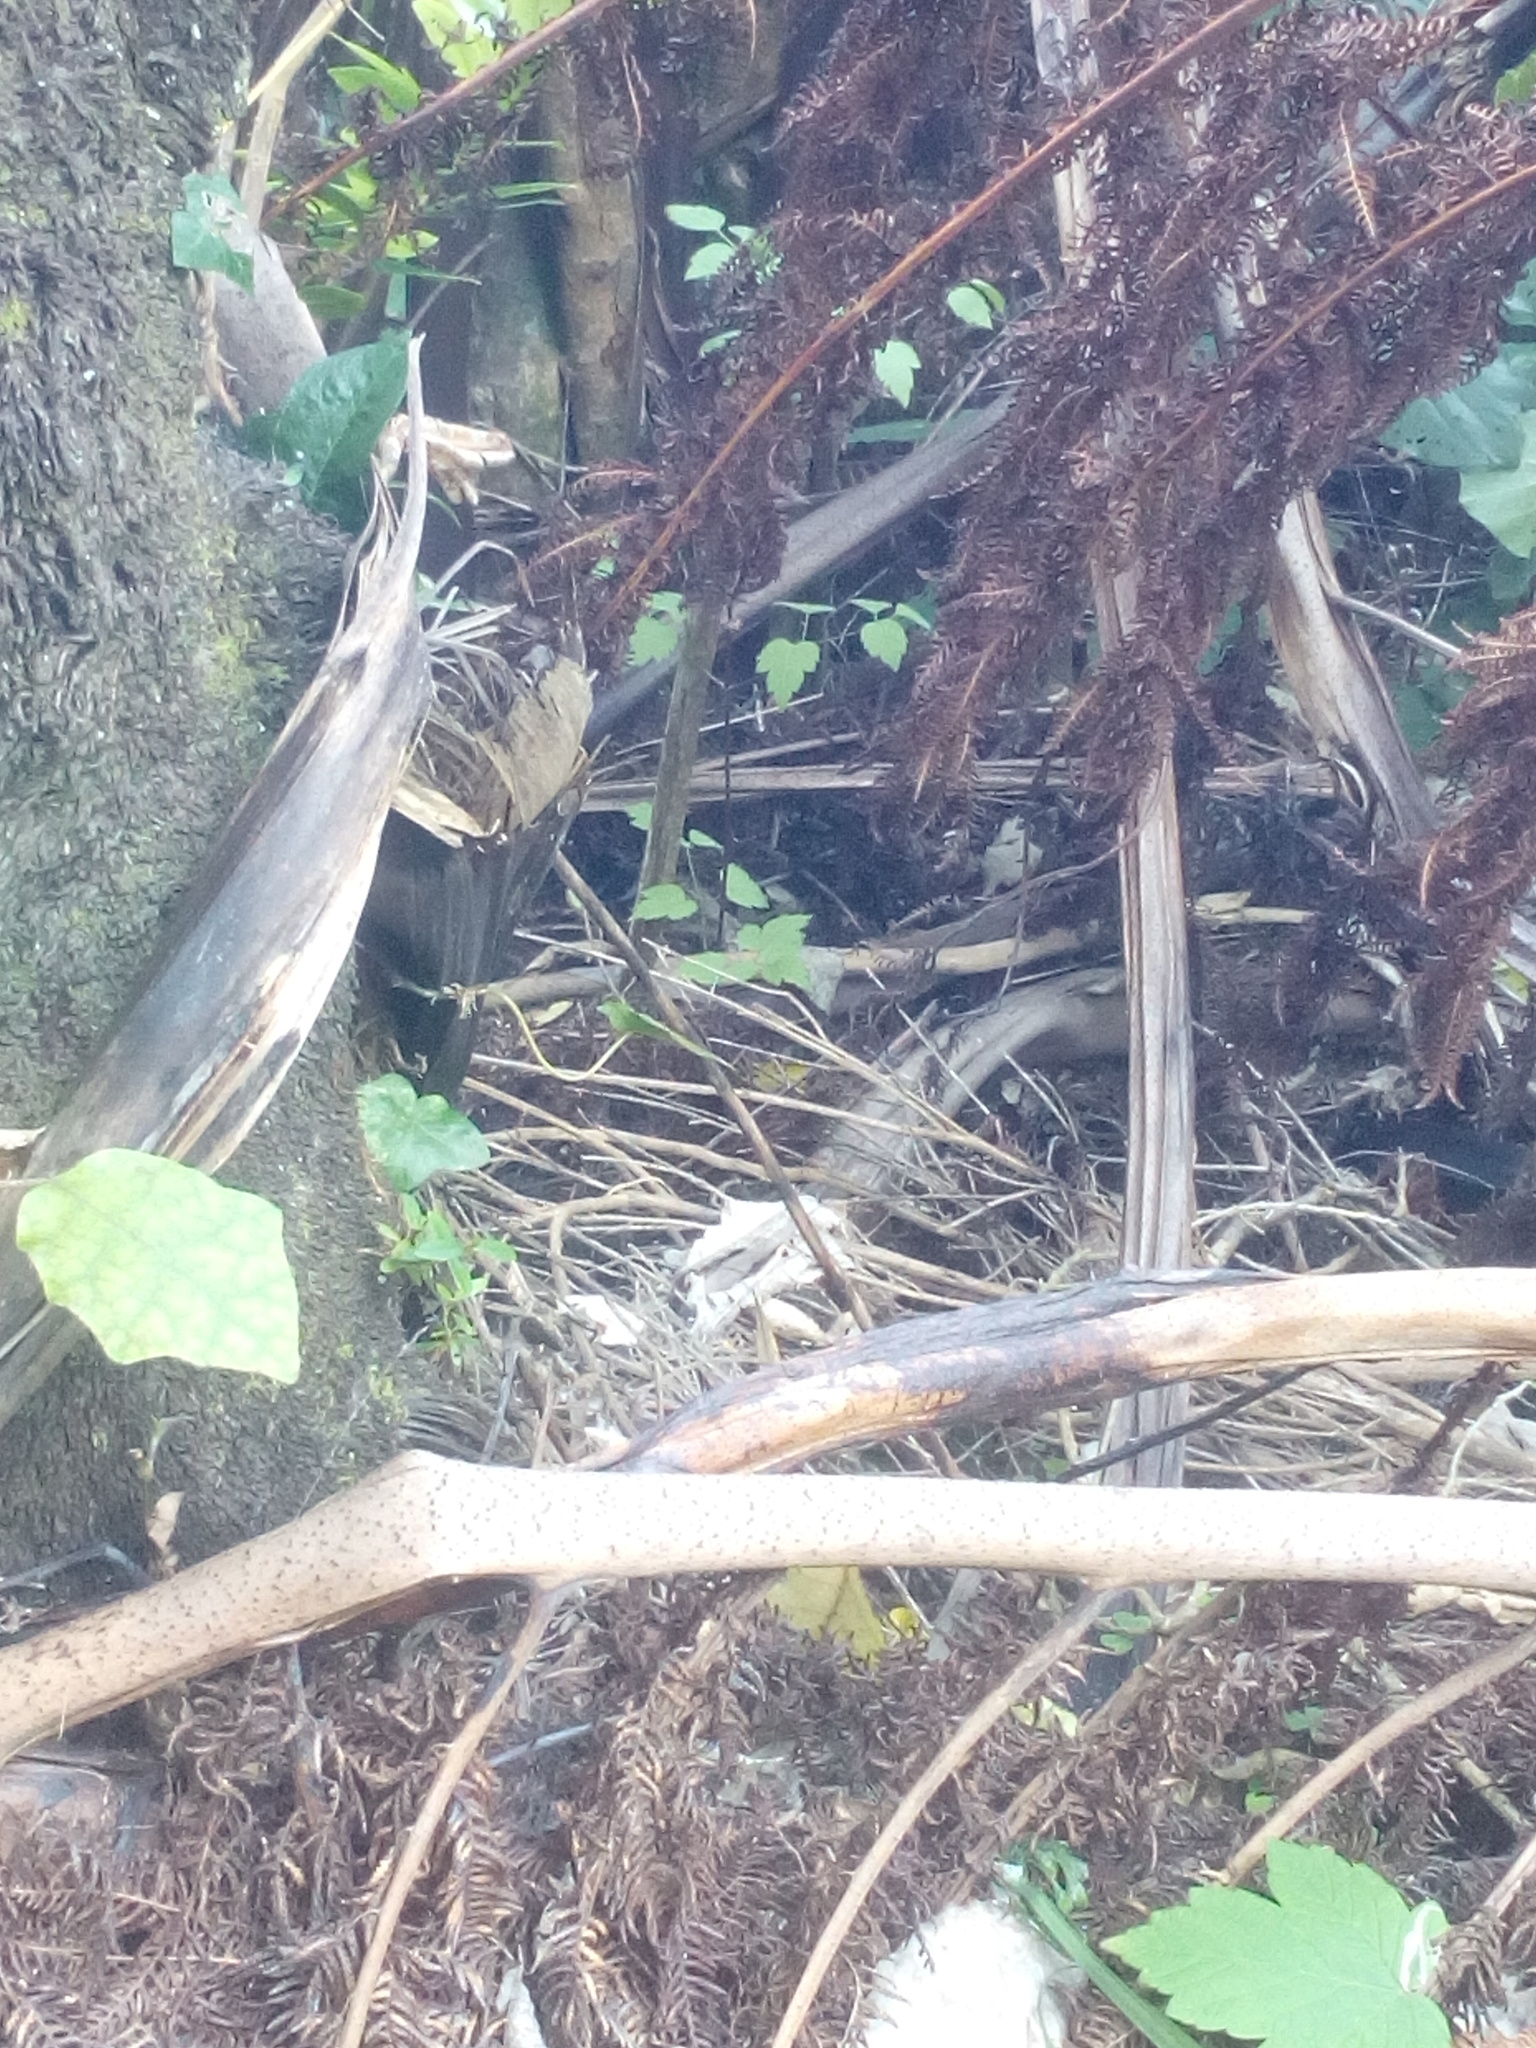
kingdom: Plantae
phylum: Tracheophyta
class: Magnoliopsida
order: Ranunculales
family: Ranunculaceae
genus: Clematis
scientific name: Clematis vitalba
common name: Evergreen clematis
